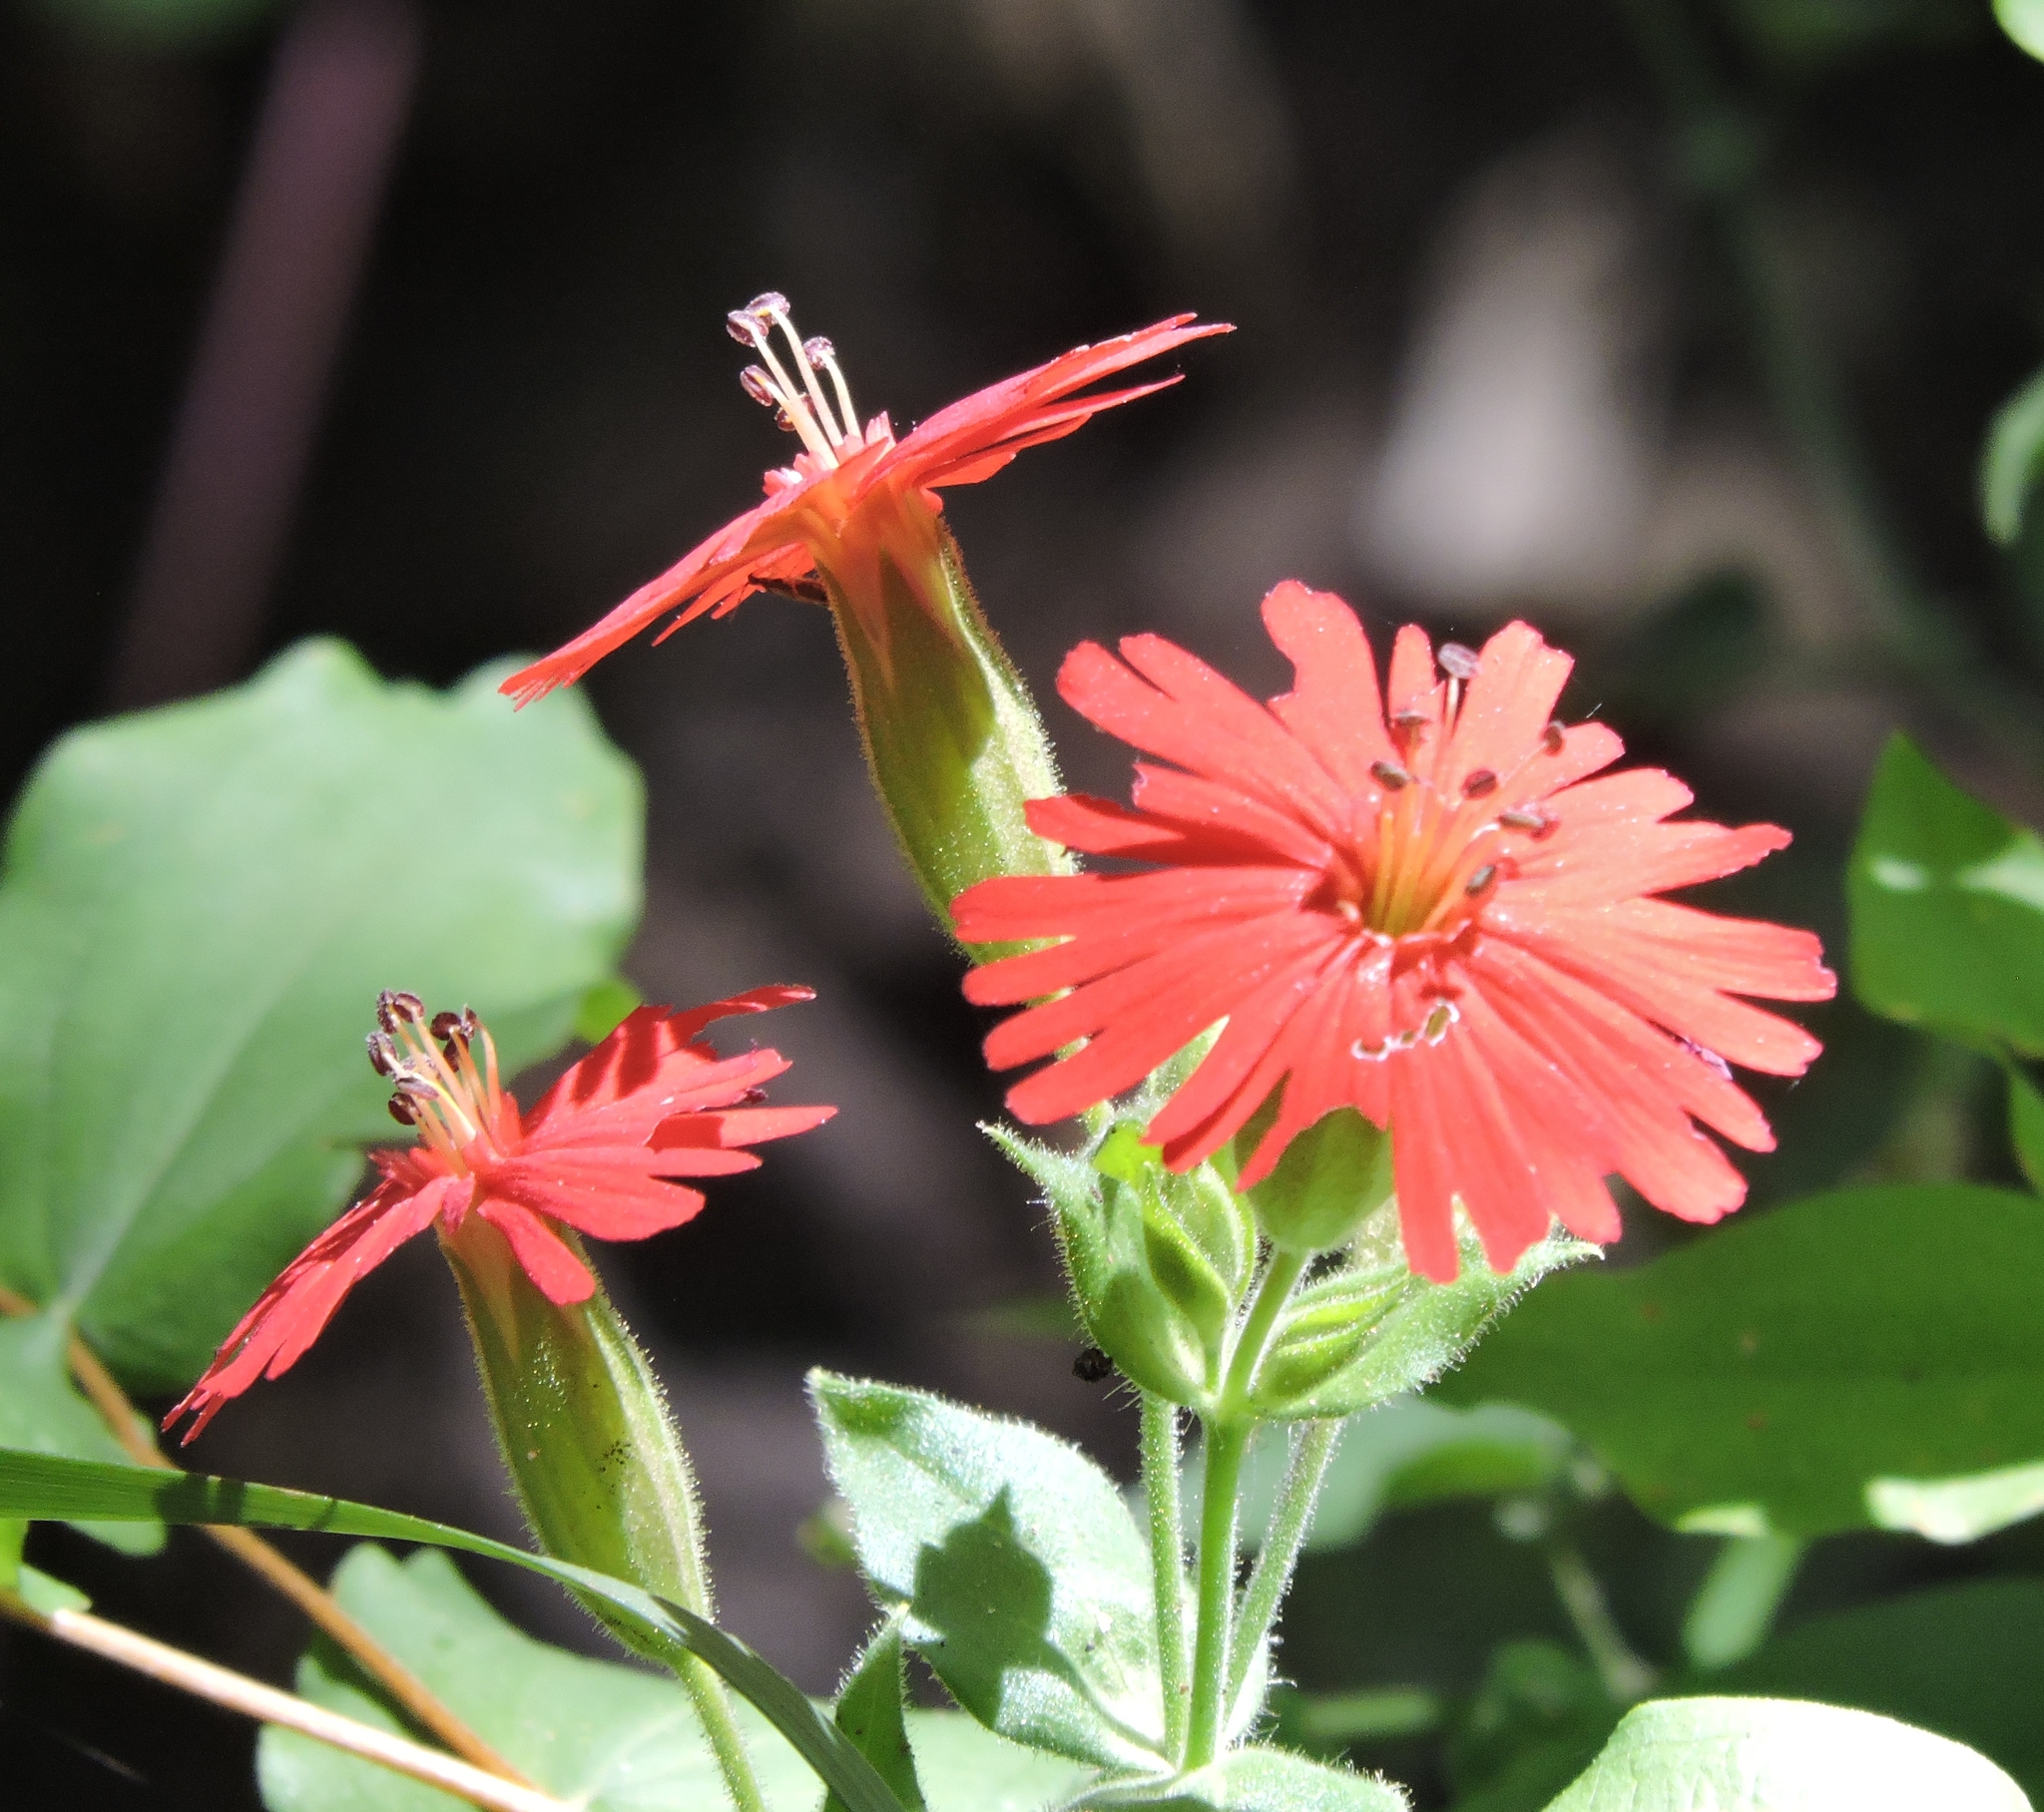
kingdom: Plantae
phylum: Tracheophyta
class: Magnoliopsida
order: Caryophyllales
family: Caryophyllaceae
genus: Silene
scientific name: Silene laciniata
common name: Indian-pink
